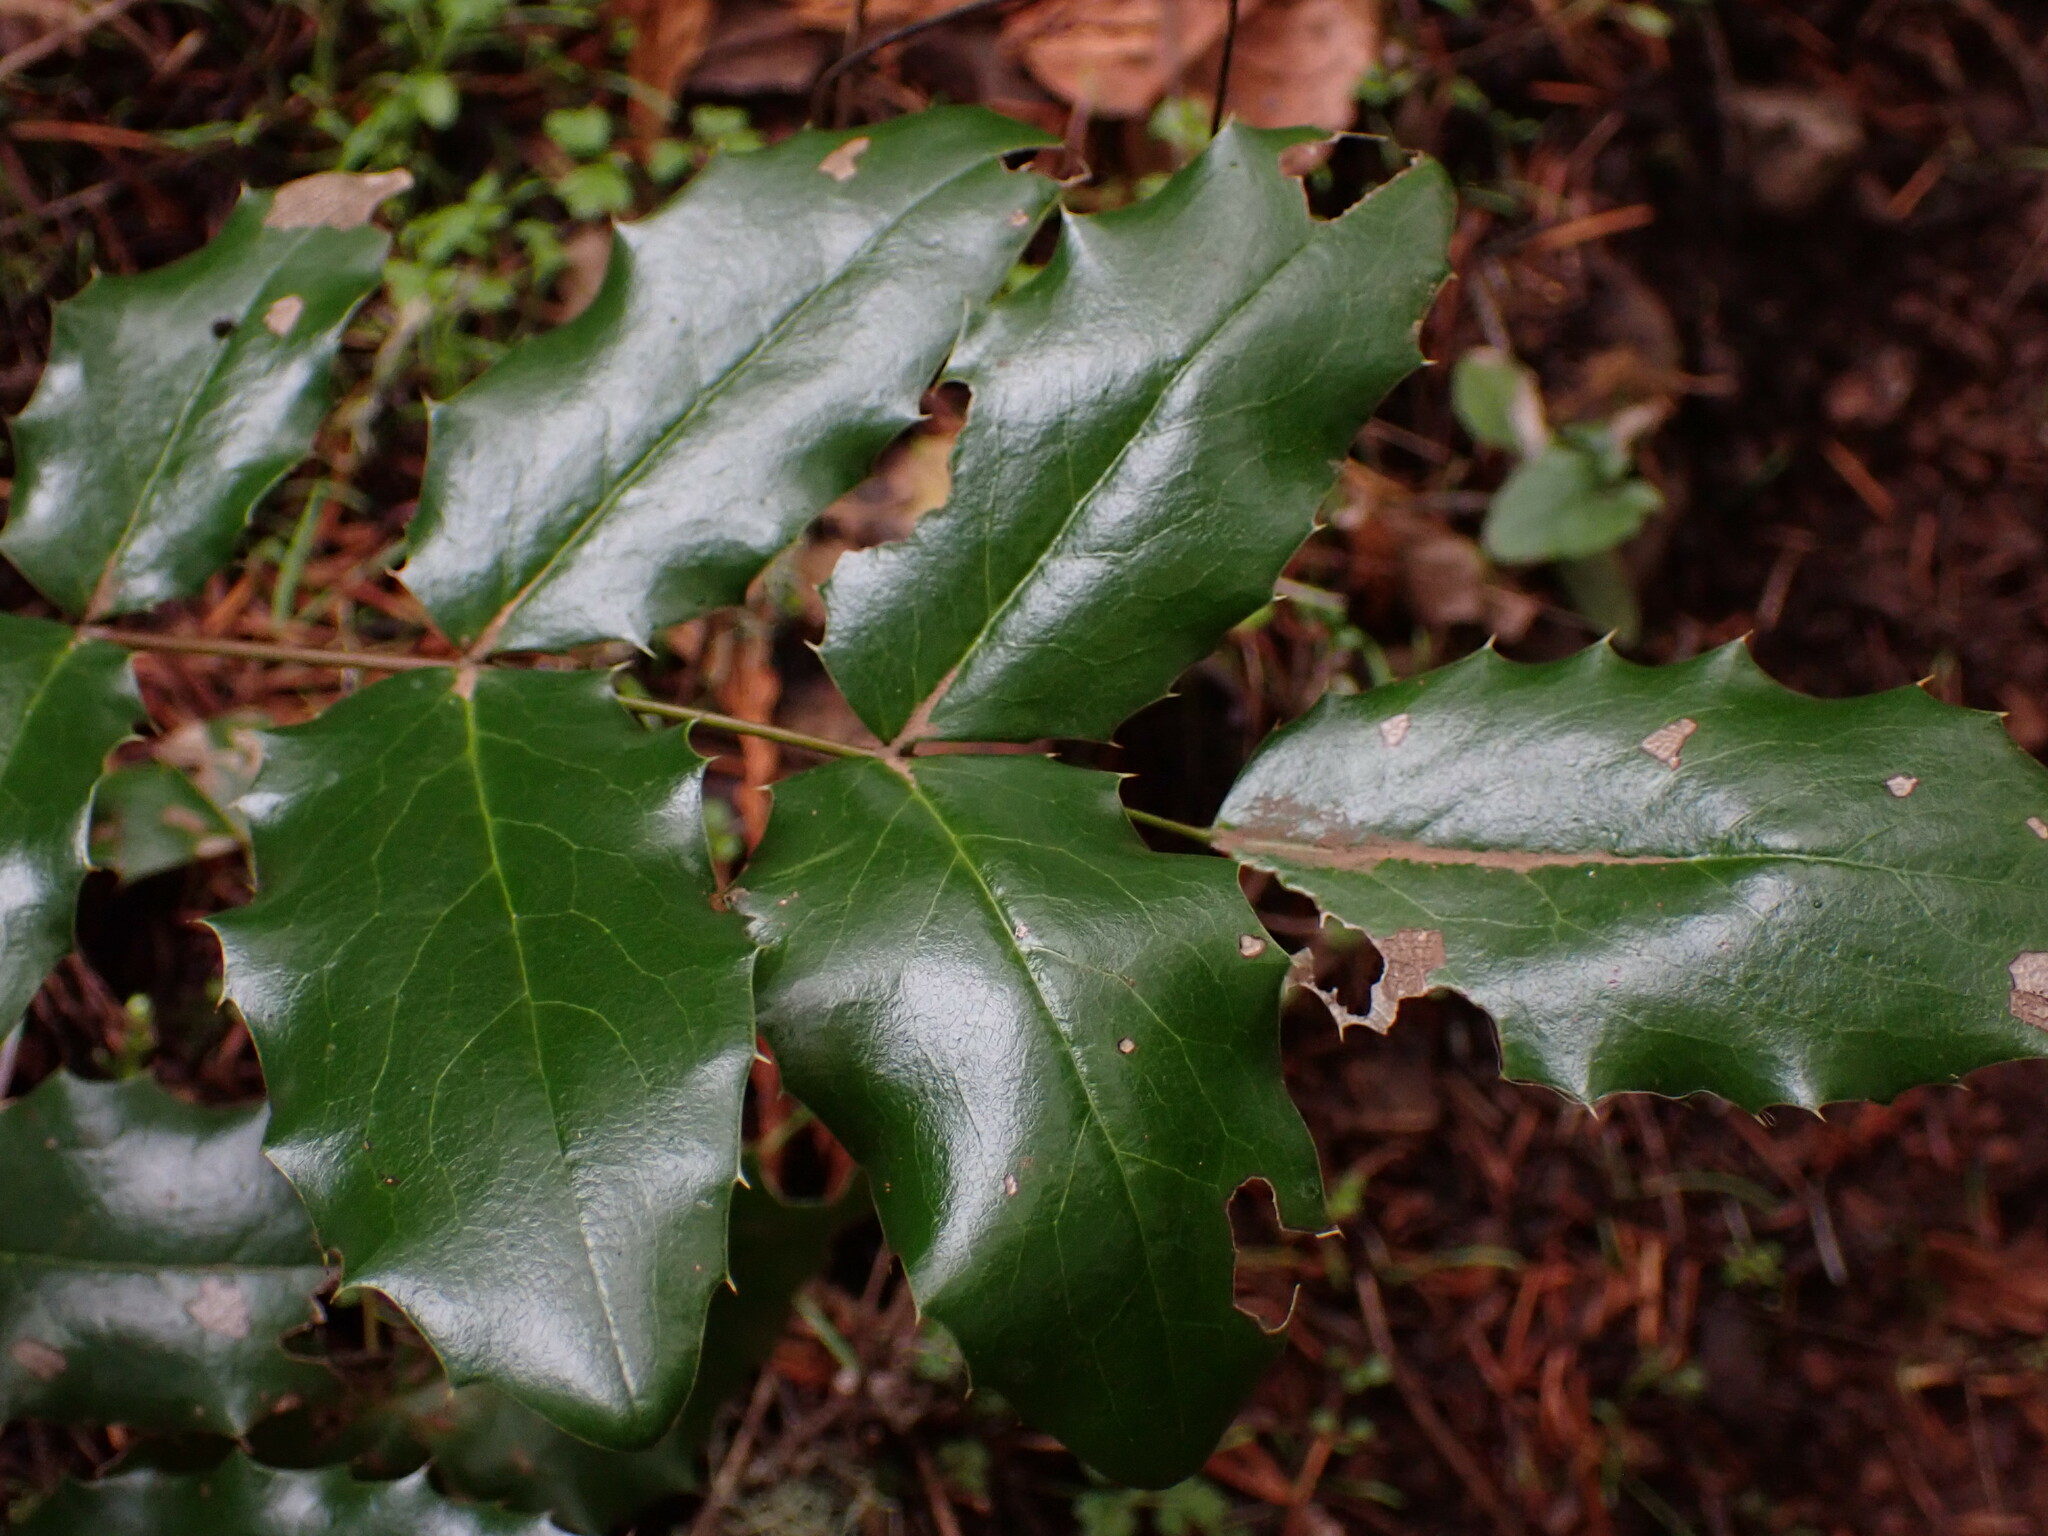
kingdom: Plantae
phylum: Tracheophyta
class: Magnoliopsida
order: Ranunculales
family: Berberidaceae
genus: Mahonia
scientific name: Mahonia aquifolium
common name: Oregon-grape
